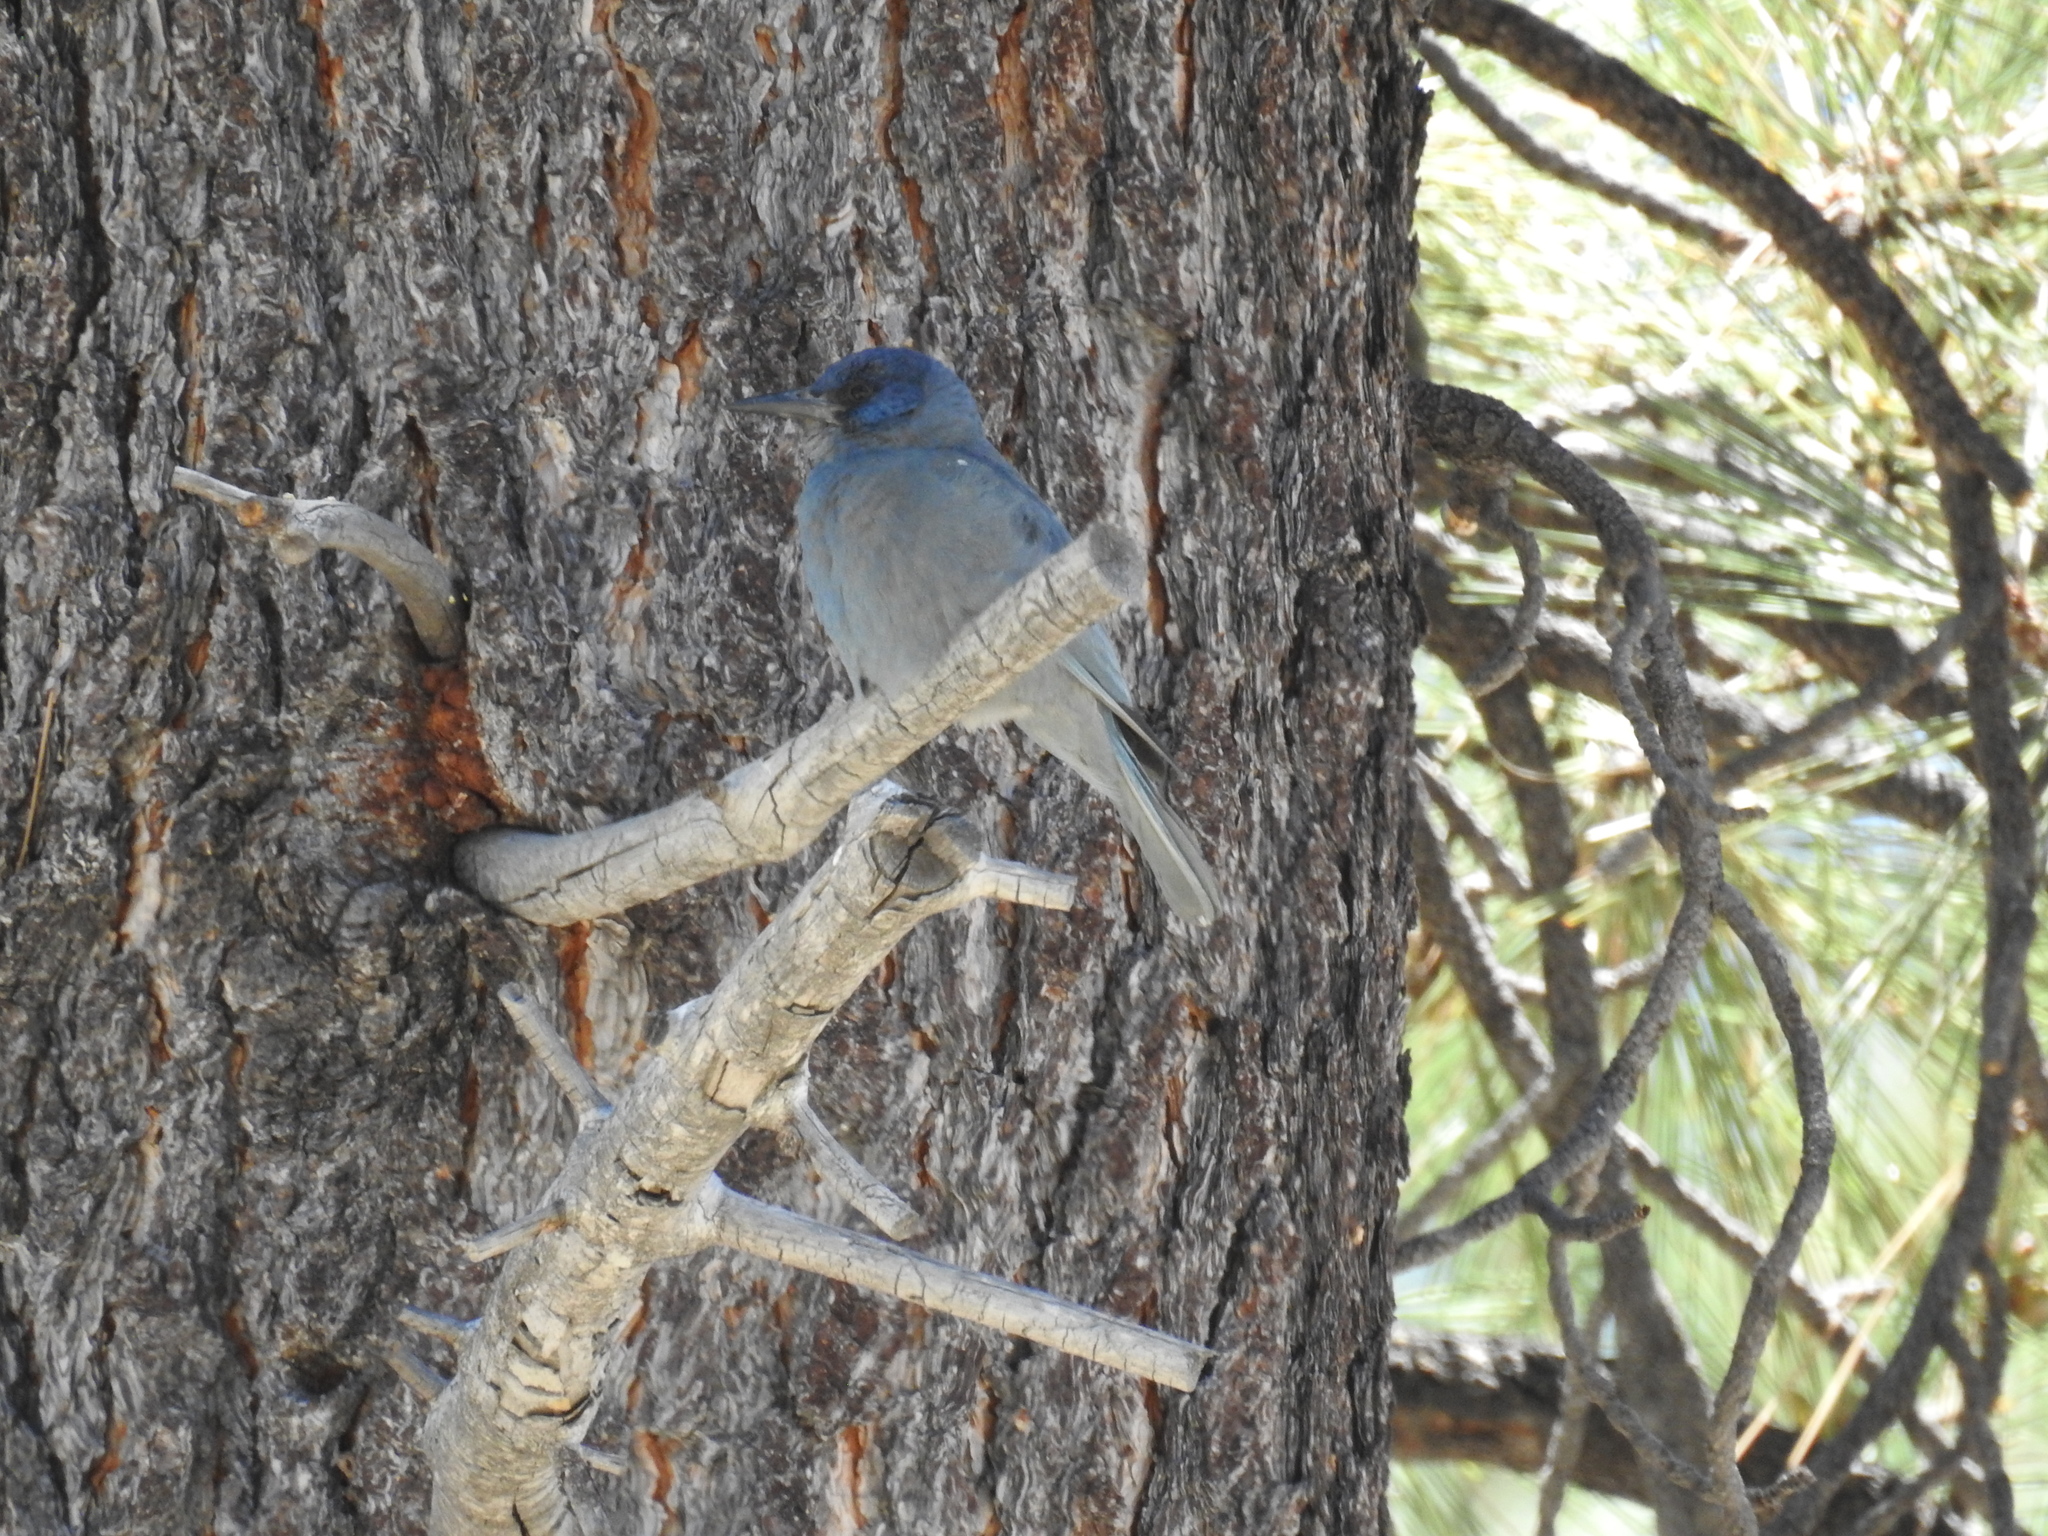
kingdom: Animalia
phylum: Chordata
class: Aves
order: Passeriformes
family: Corvidae
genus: Gymnorhinus
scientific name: Gymnorhinus cyanocephalus
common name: Pinyon jay
